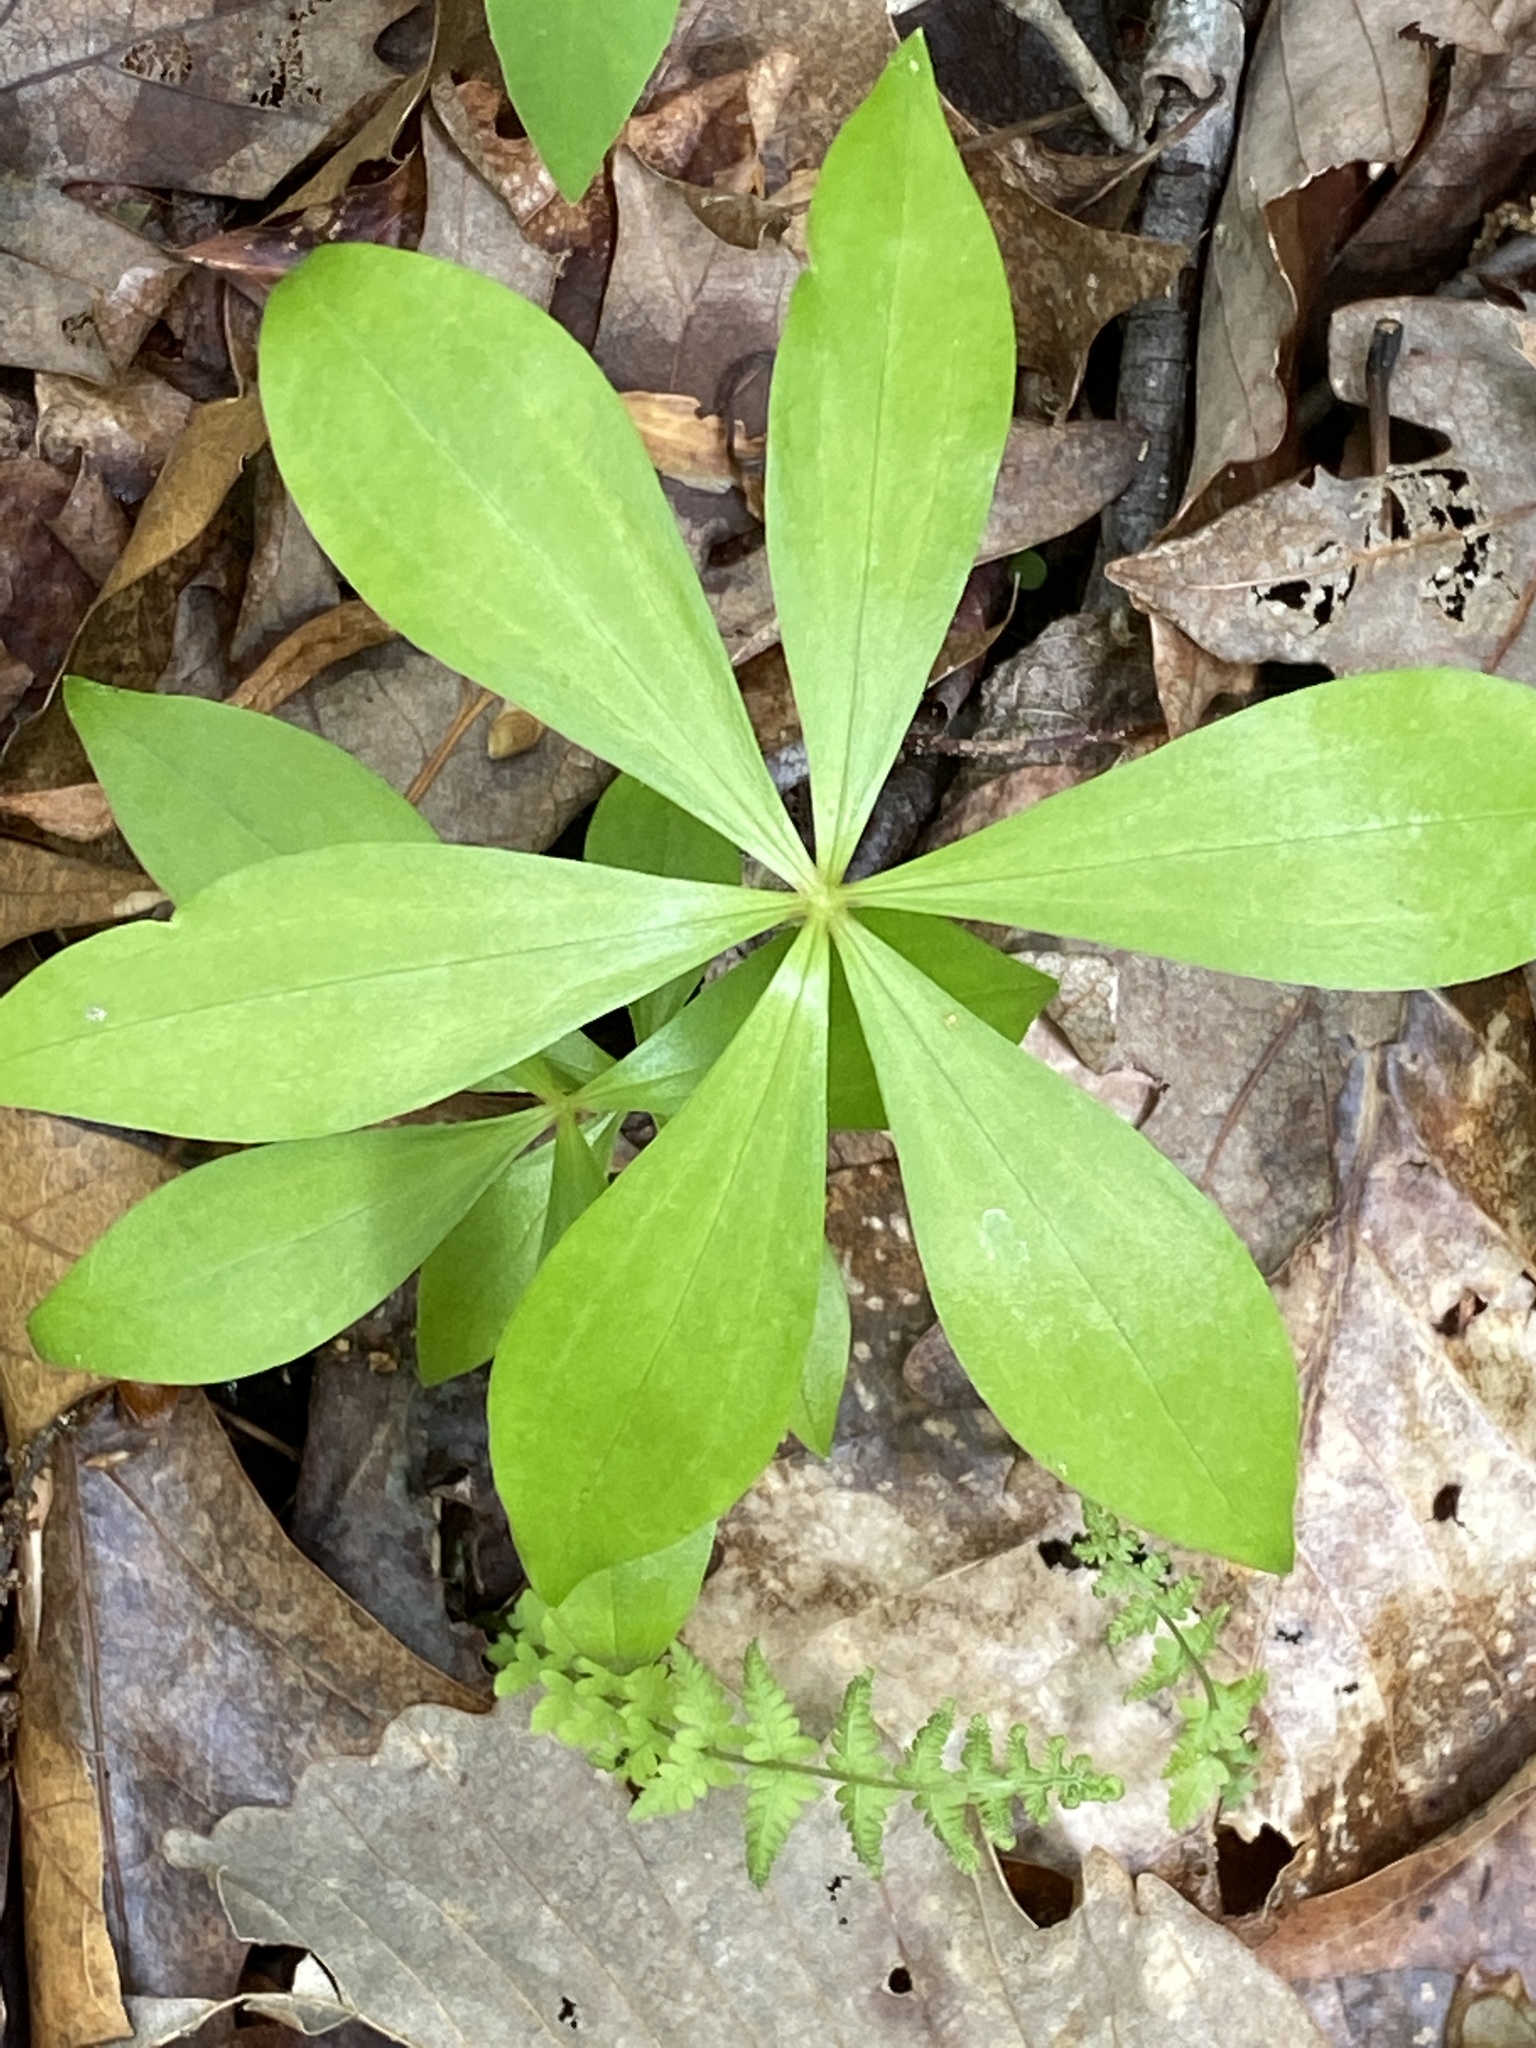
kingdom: Plantae
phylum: Tracheophyta
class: Liliopsida
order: Liliales
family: Liliaceae
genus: Medeola
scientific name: Medeola virginiana
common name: Indian cucumber-root
